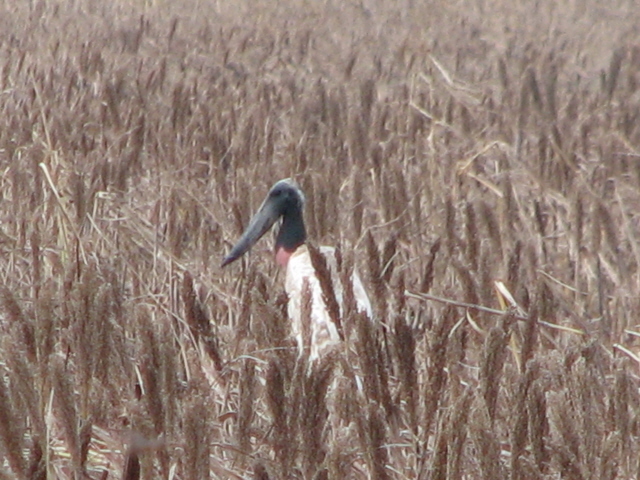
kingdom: Animalia
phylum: Chordata
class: Aves
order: Ciconiiformes
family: Ciconiidae
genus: Jabiru
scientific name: Jabiru mycteria
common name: Jabiru
